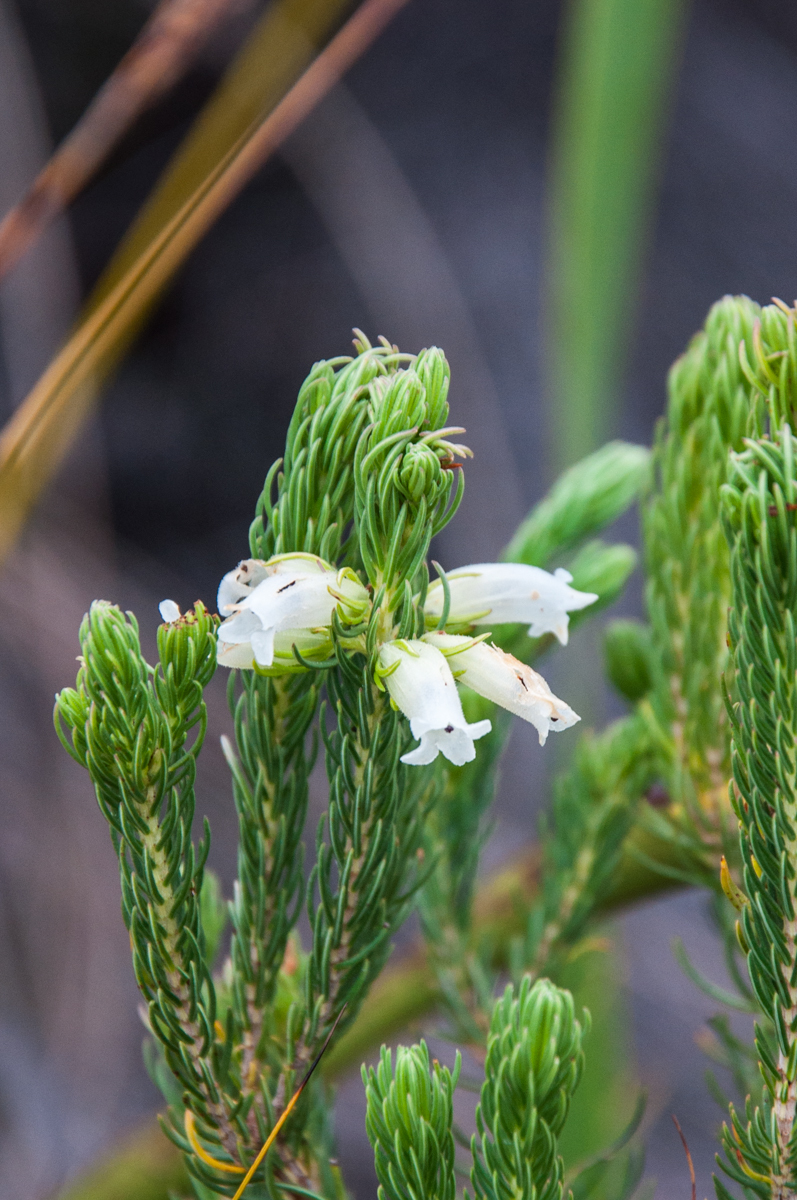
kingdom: Plantae
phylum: Tracheophyta
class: Magnoliopsida
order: Ericales
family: Ericaceae
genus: Erica
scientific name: Erica viscaria
